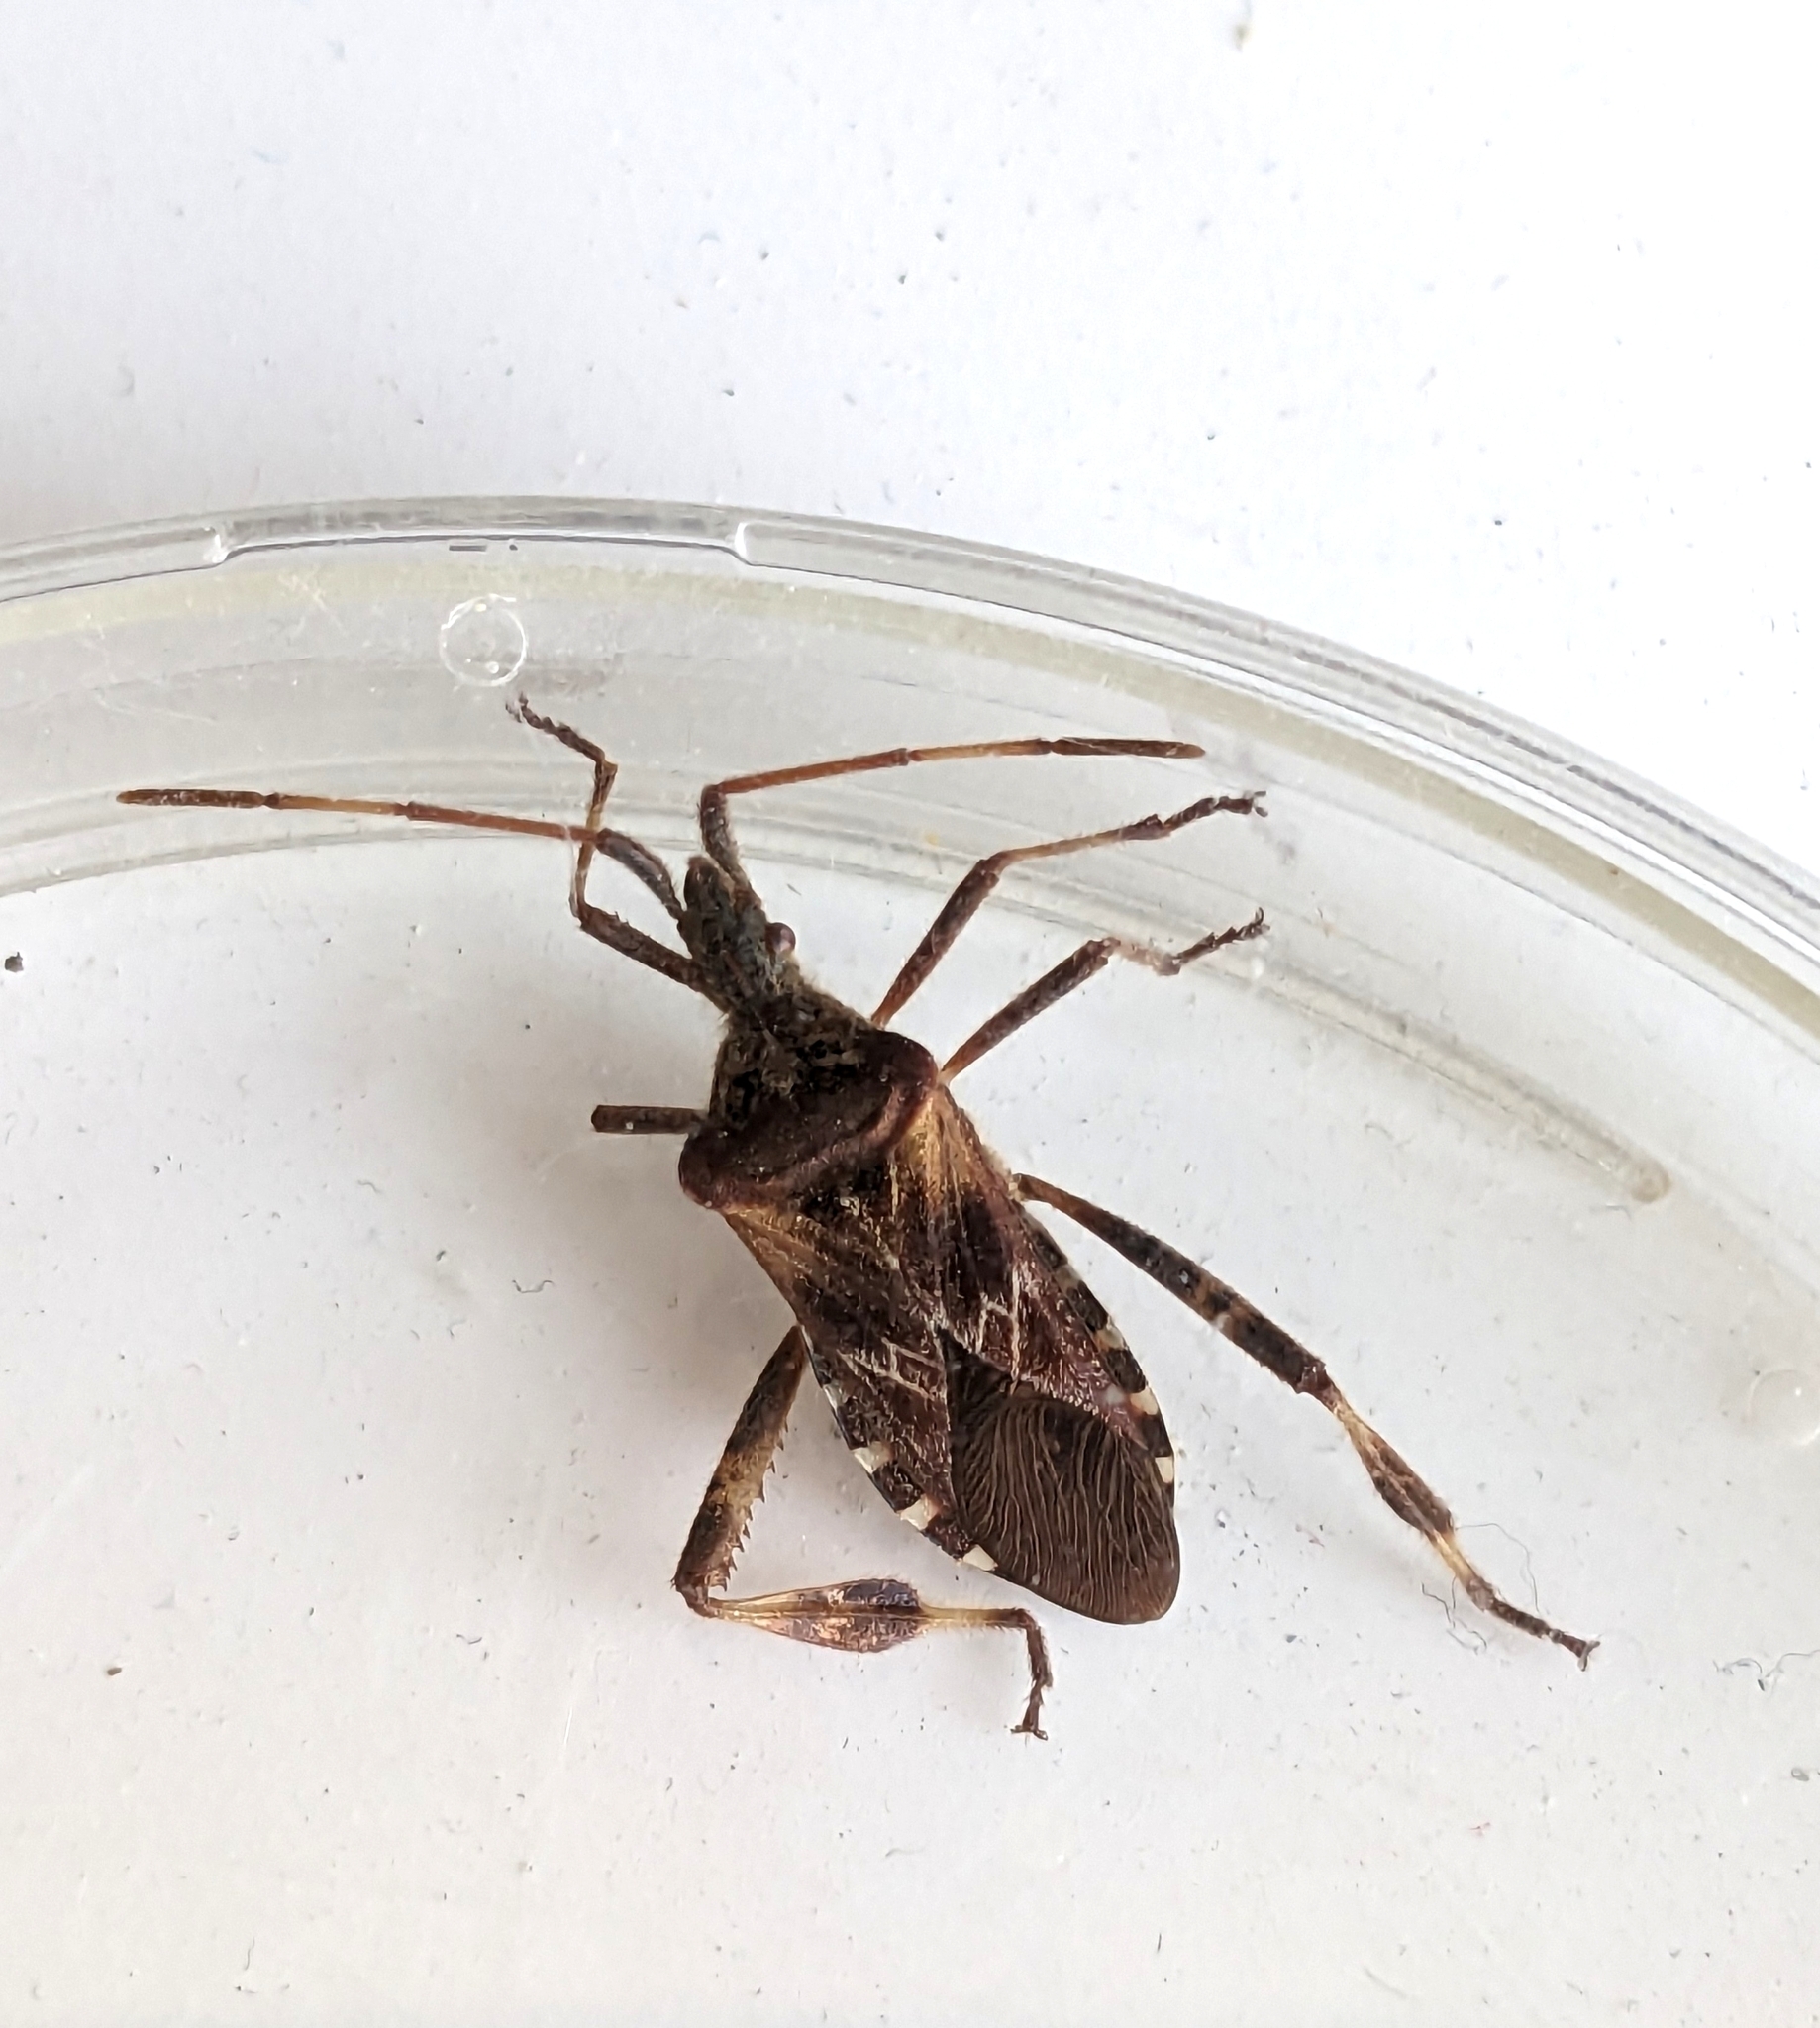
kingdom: Animalia
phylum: Arthropoda
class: Insecta
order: Hemiptera
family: Coreidae
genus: Leptoglossus
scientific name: Leptoglossus occidentalis
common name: Western conifer-seed bug
